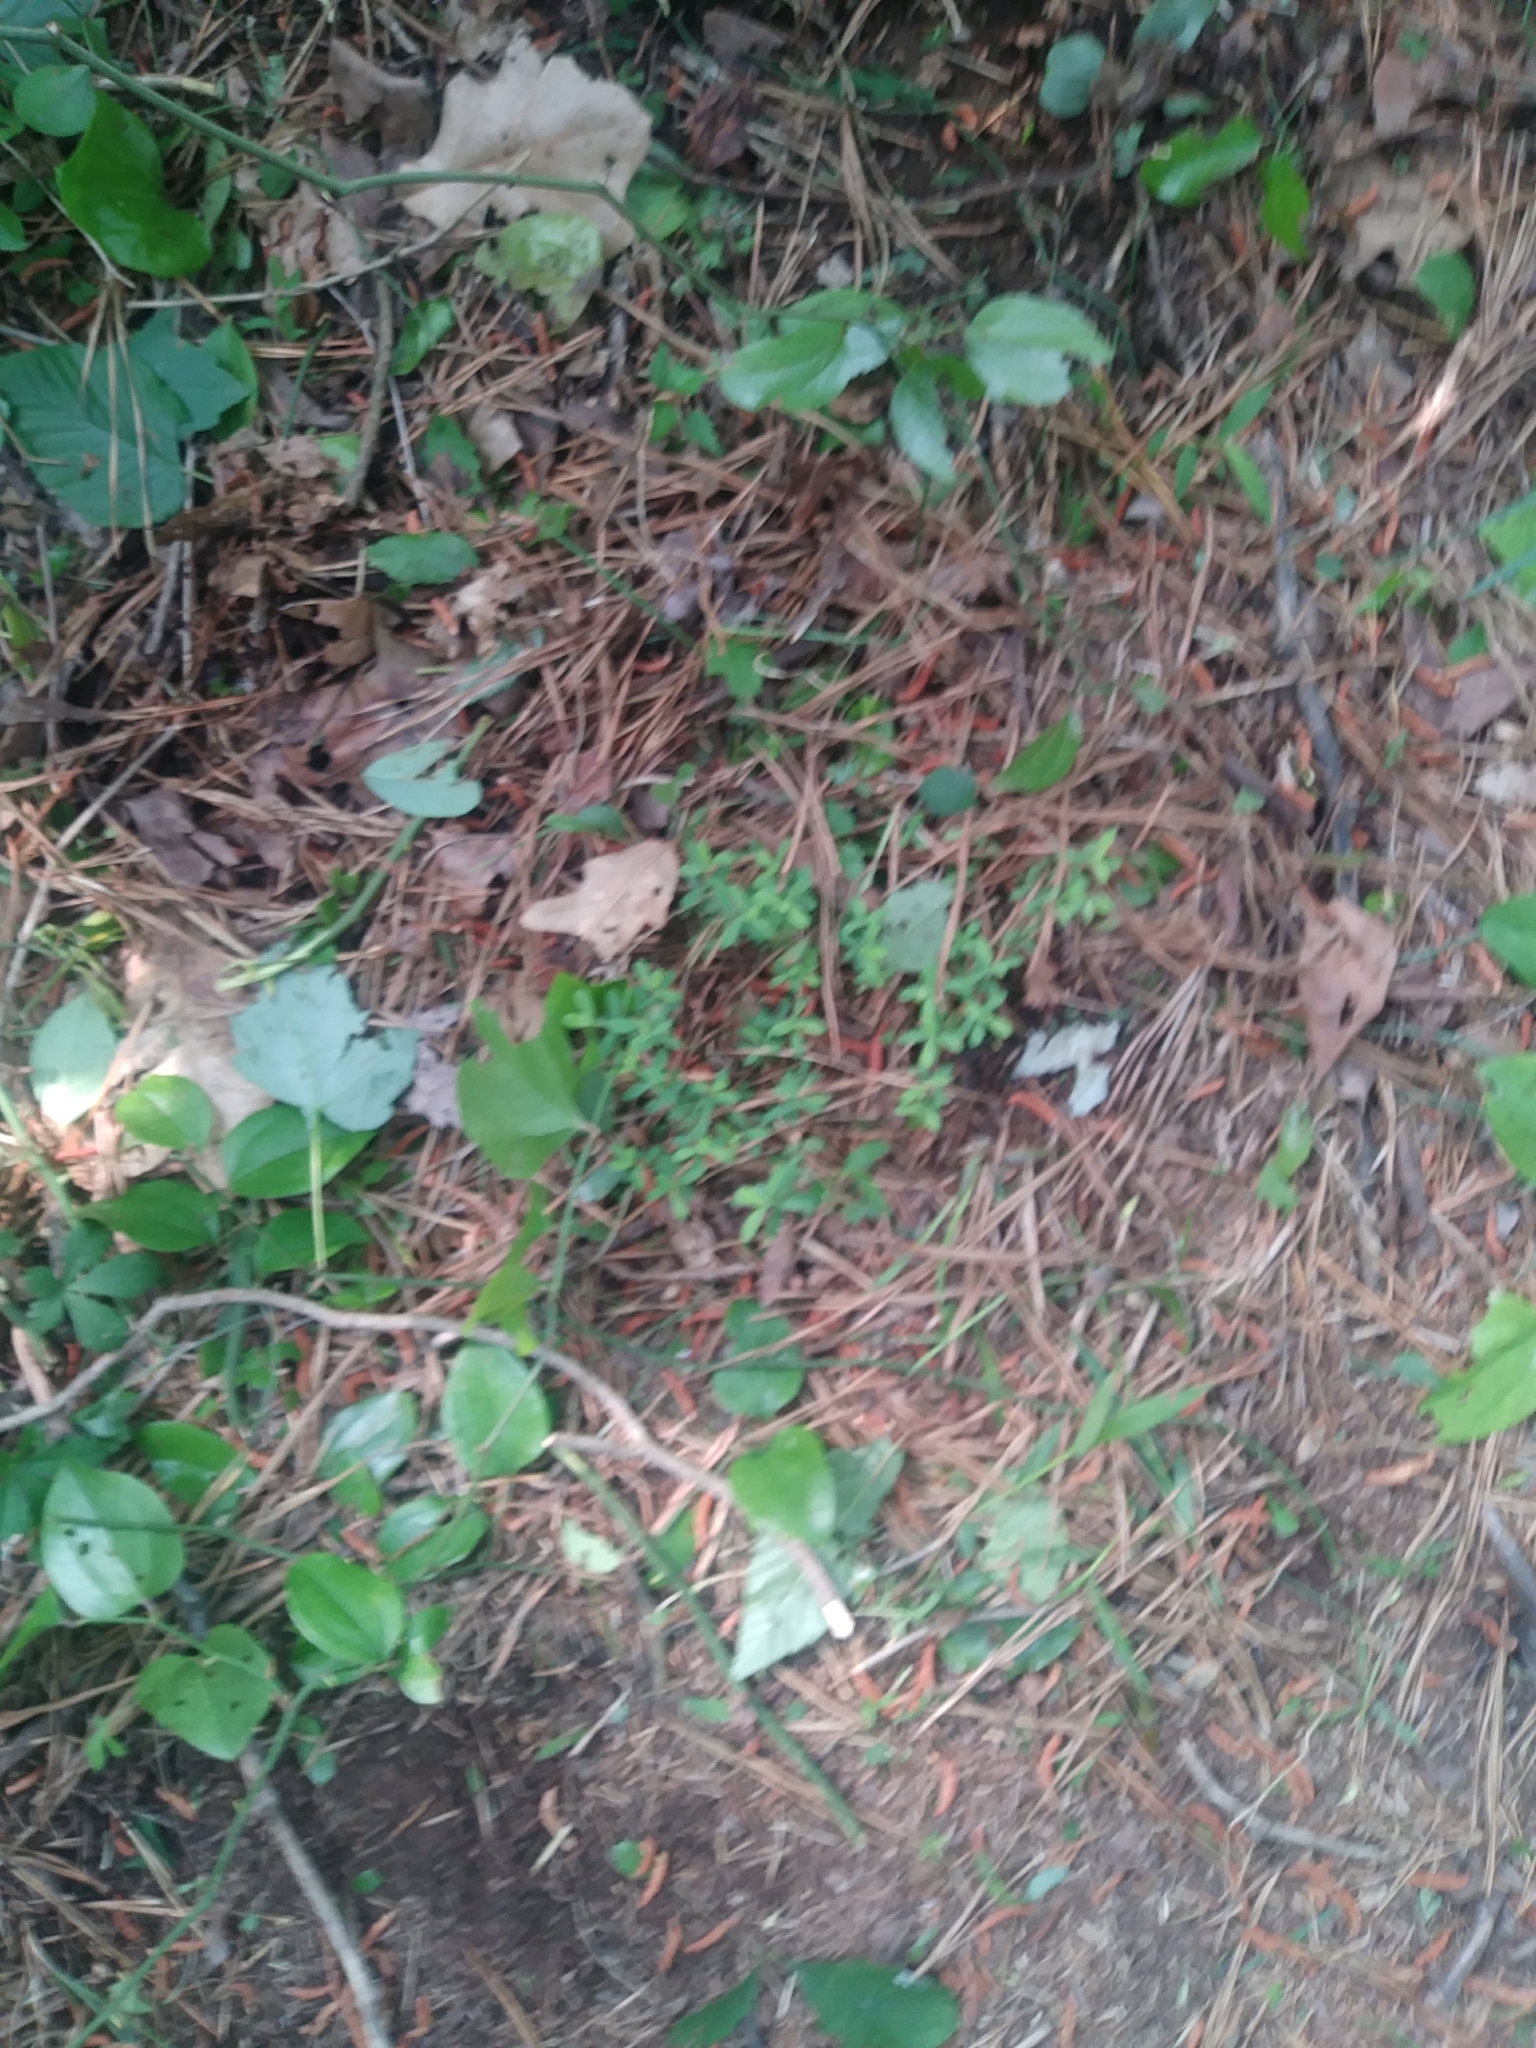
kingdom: Plantae
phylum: Tracheophyta
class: Magnoliopsida
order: Malpighiales
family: Hypericaceae
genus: Hypericum
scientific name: Hypericum hypericoides
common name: St. andrew's cross
